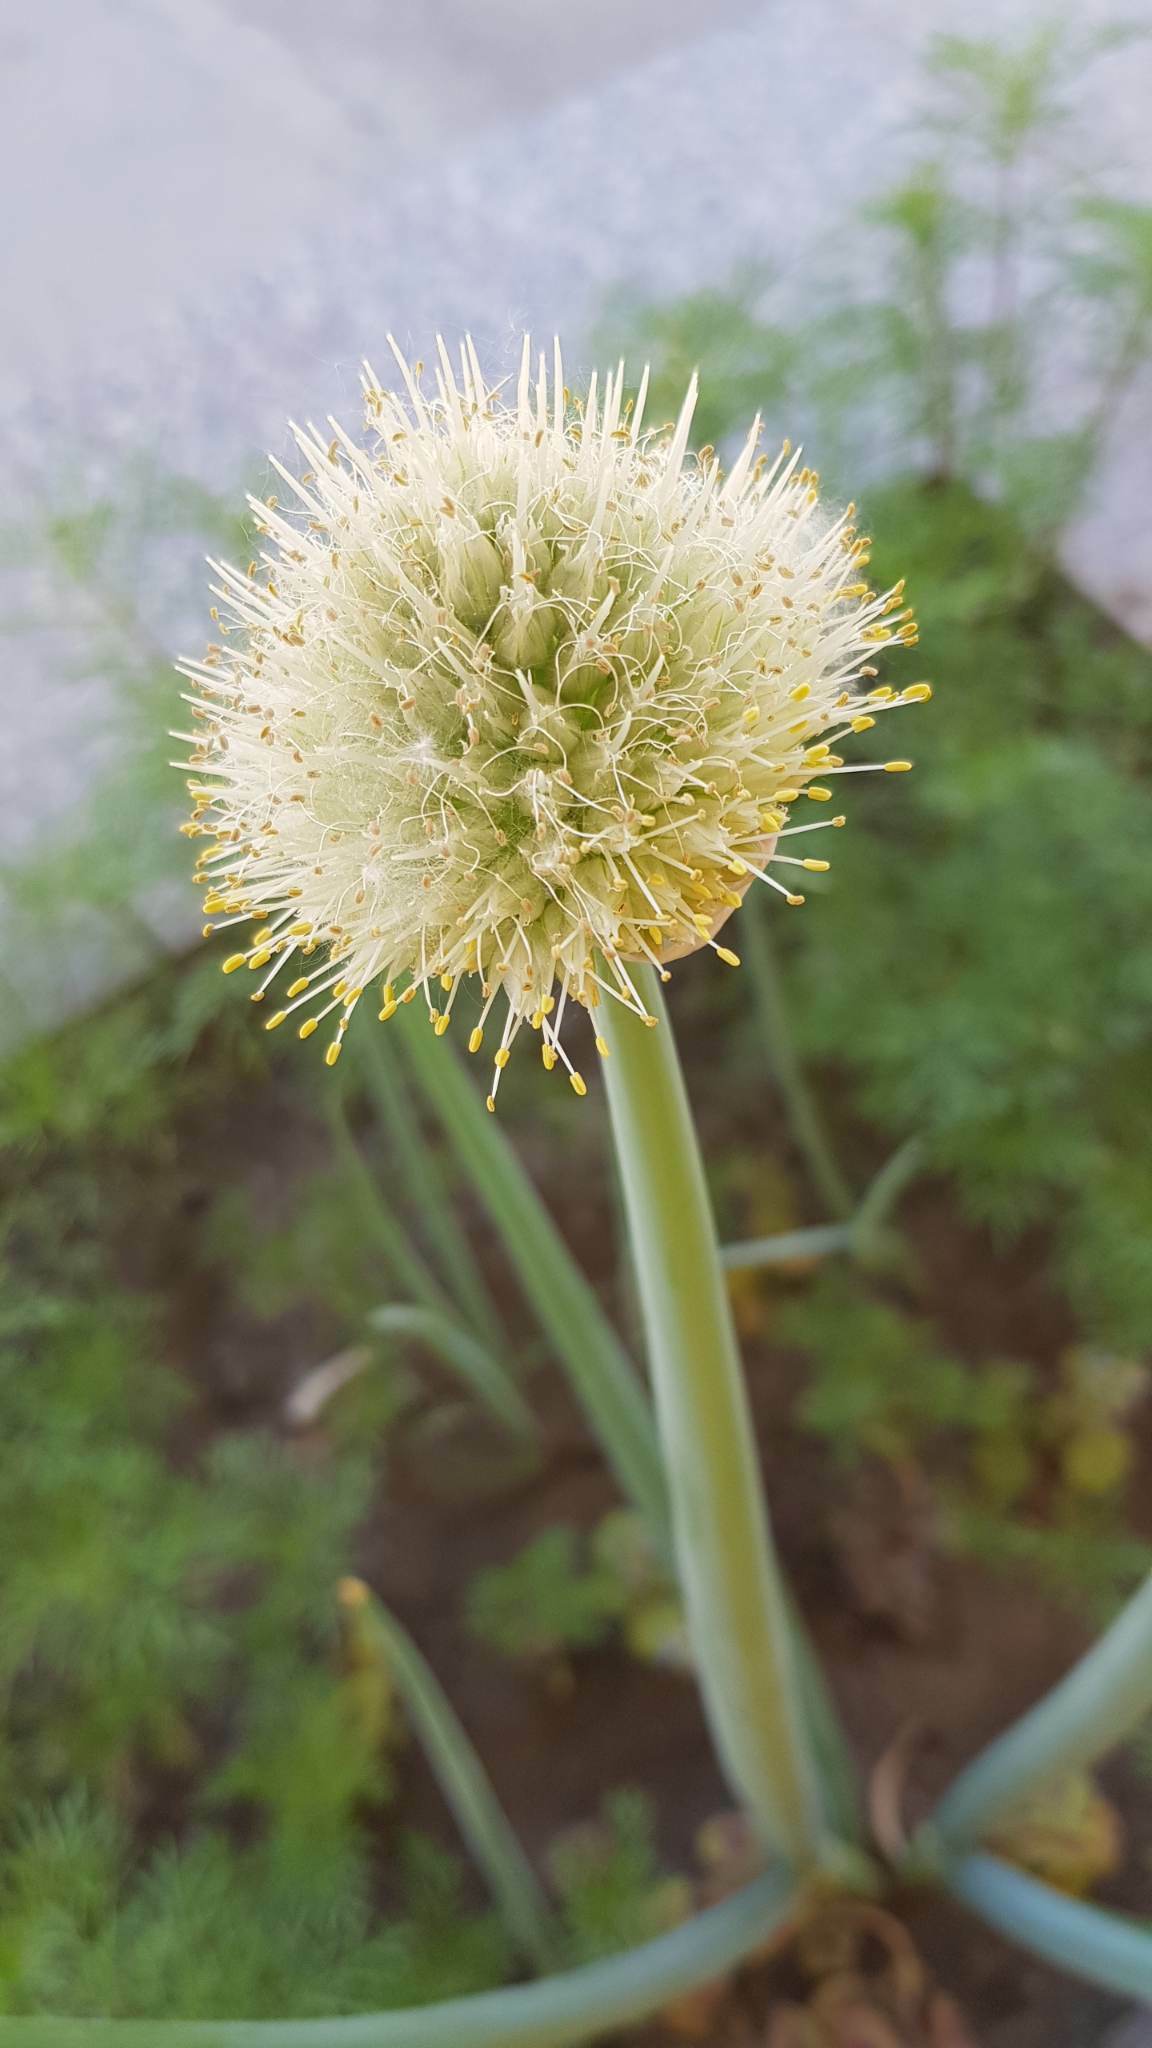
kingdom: Plantae
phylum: Tracheophyta
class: Liliopsida
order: Asparagales
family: Amaryllidaceae
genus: Allium
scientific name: Allium altaicum
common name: Altai onion
